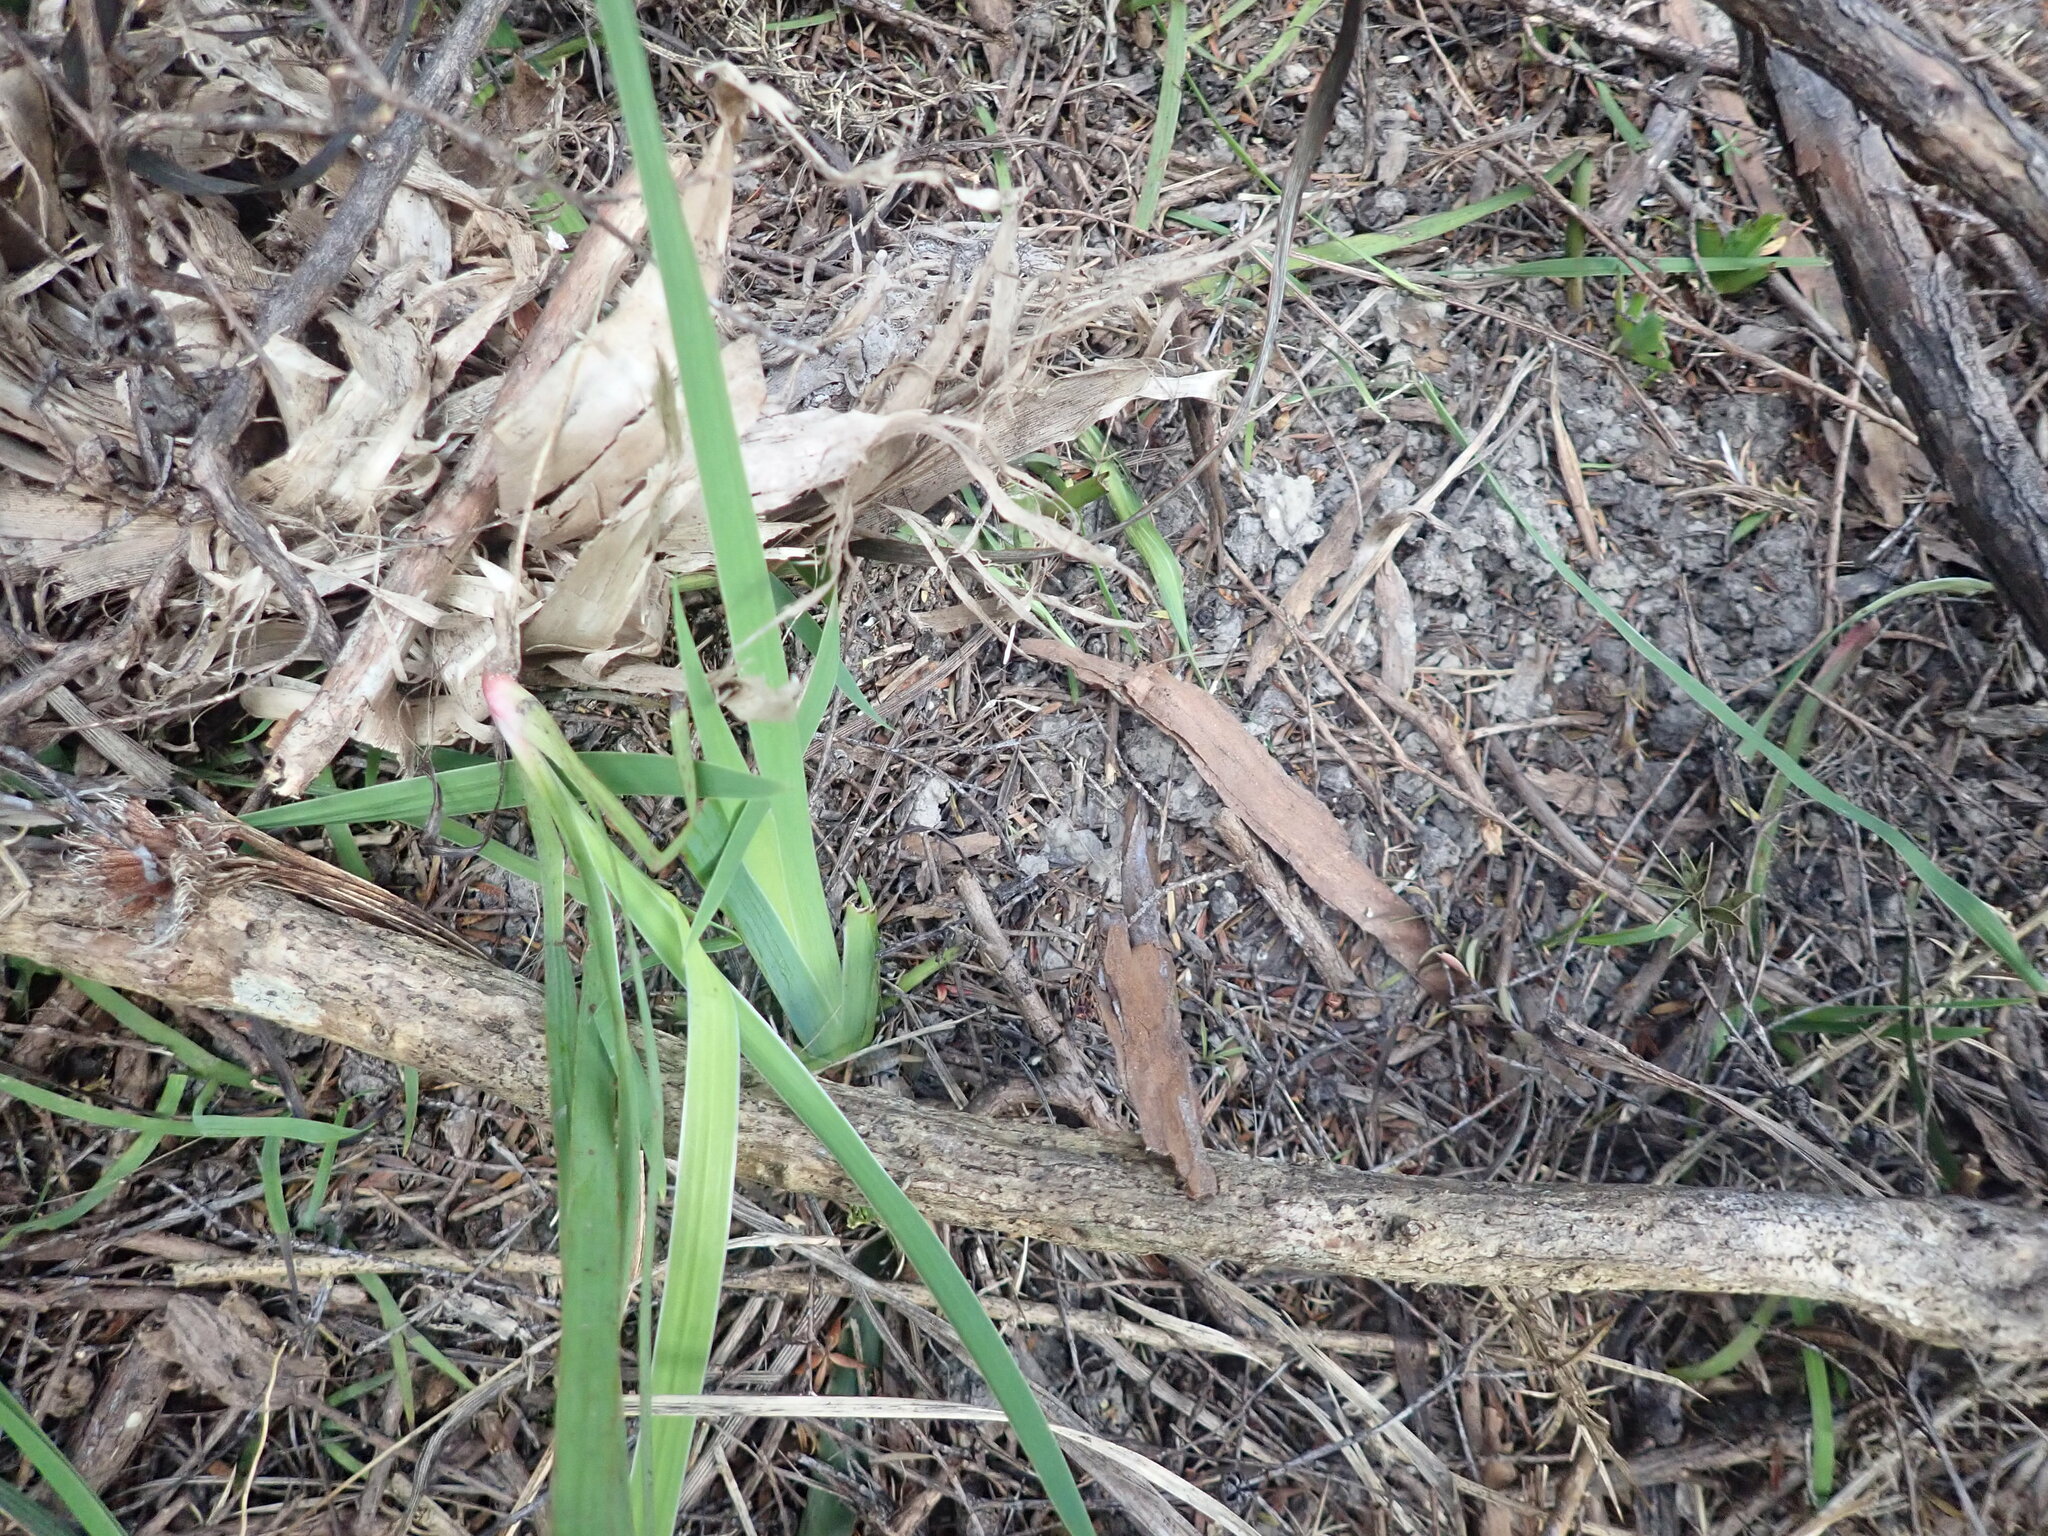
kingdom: Plantae
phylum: Tracheophyta
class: Liliopsida
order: Asparagales
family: Iridaceae
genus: Aristea
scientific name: Aristea ecklonii
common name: Blue corn-lily
